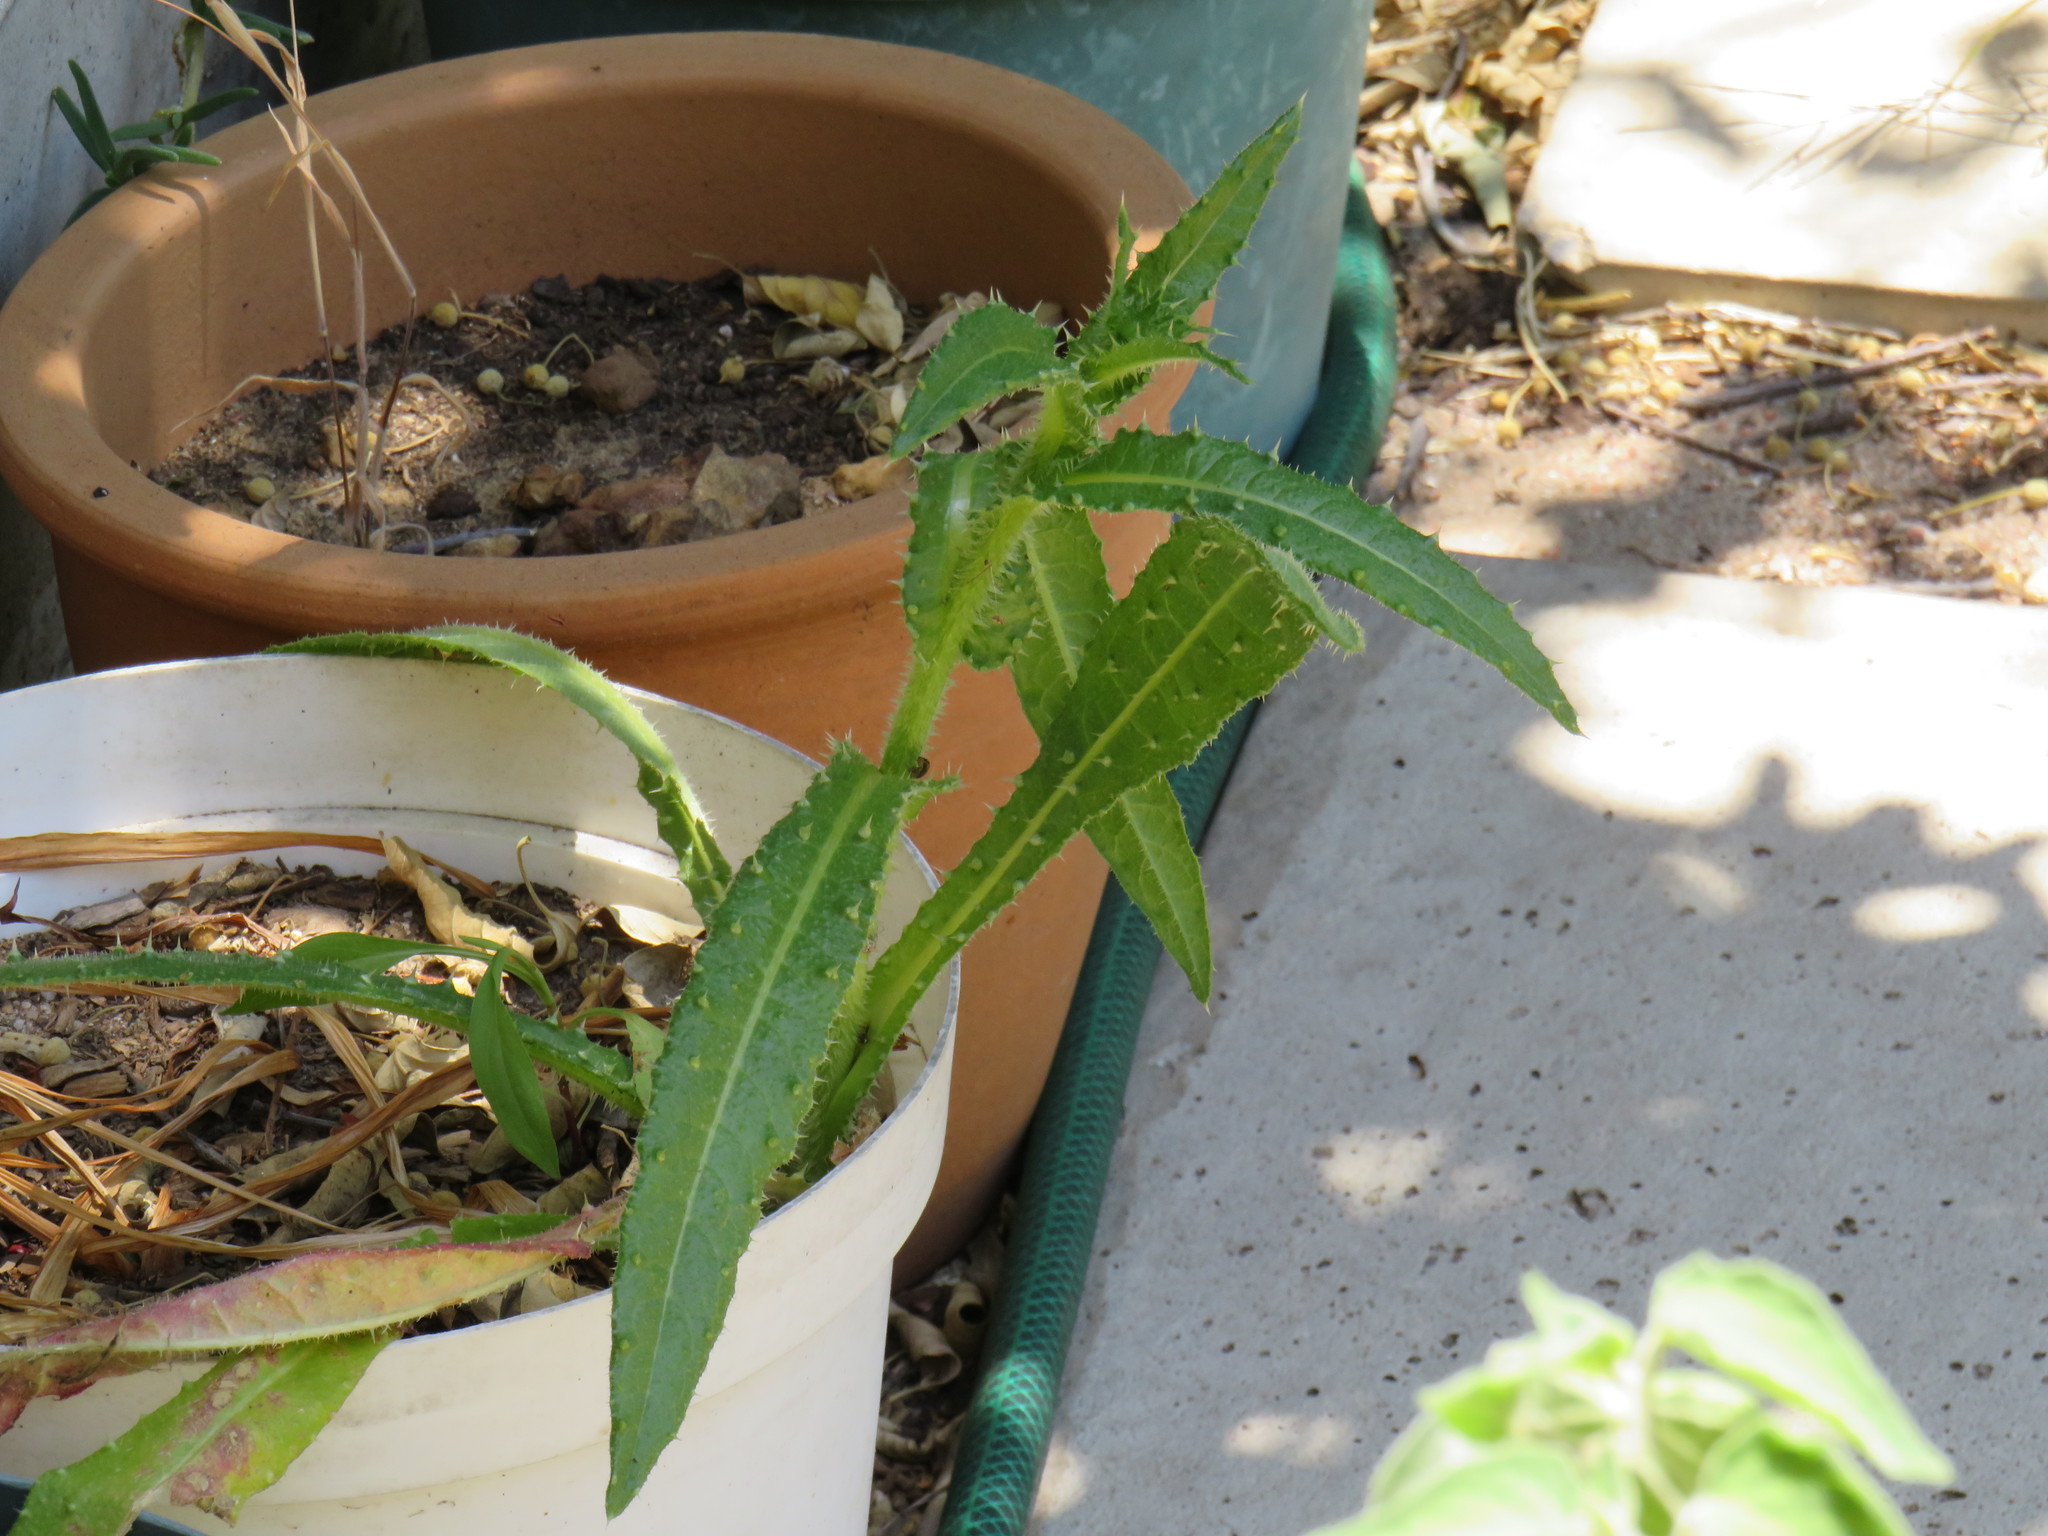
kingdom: Plantae
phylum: Tracheophyta
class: Magnoliopsida
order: Asterales
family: Asteraceae
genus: Helminthotheca
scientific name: Helminthotheca echioides
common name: Ox-tongue
